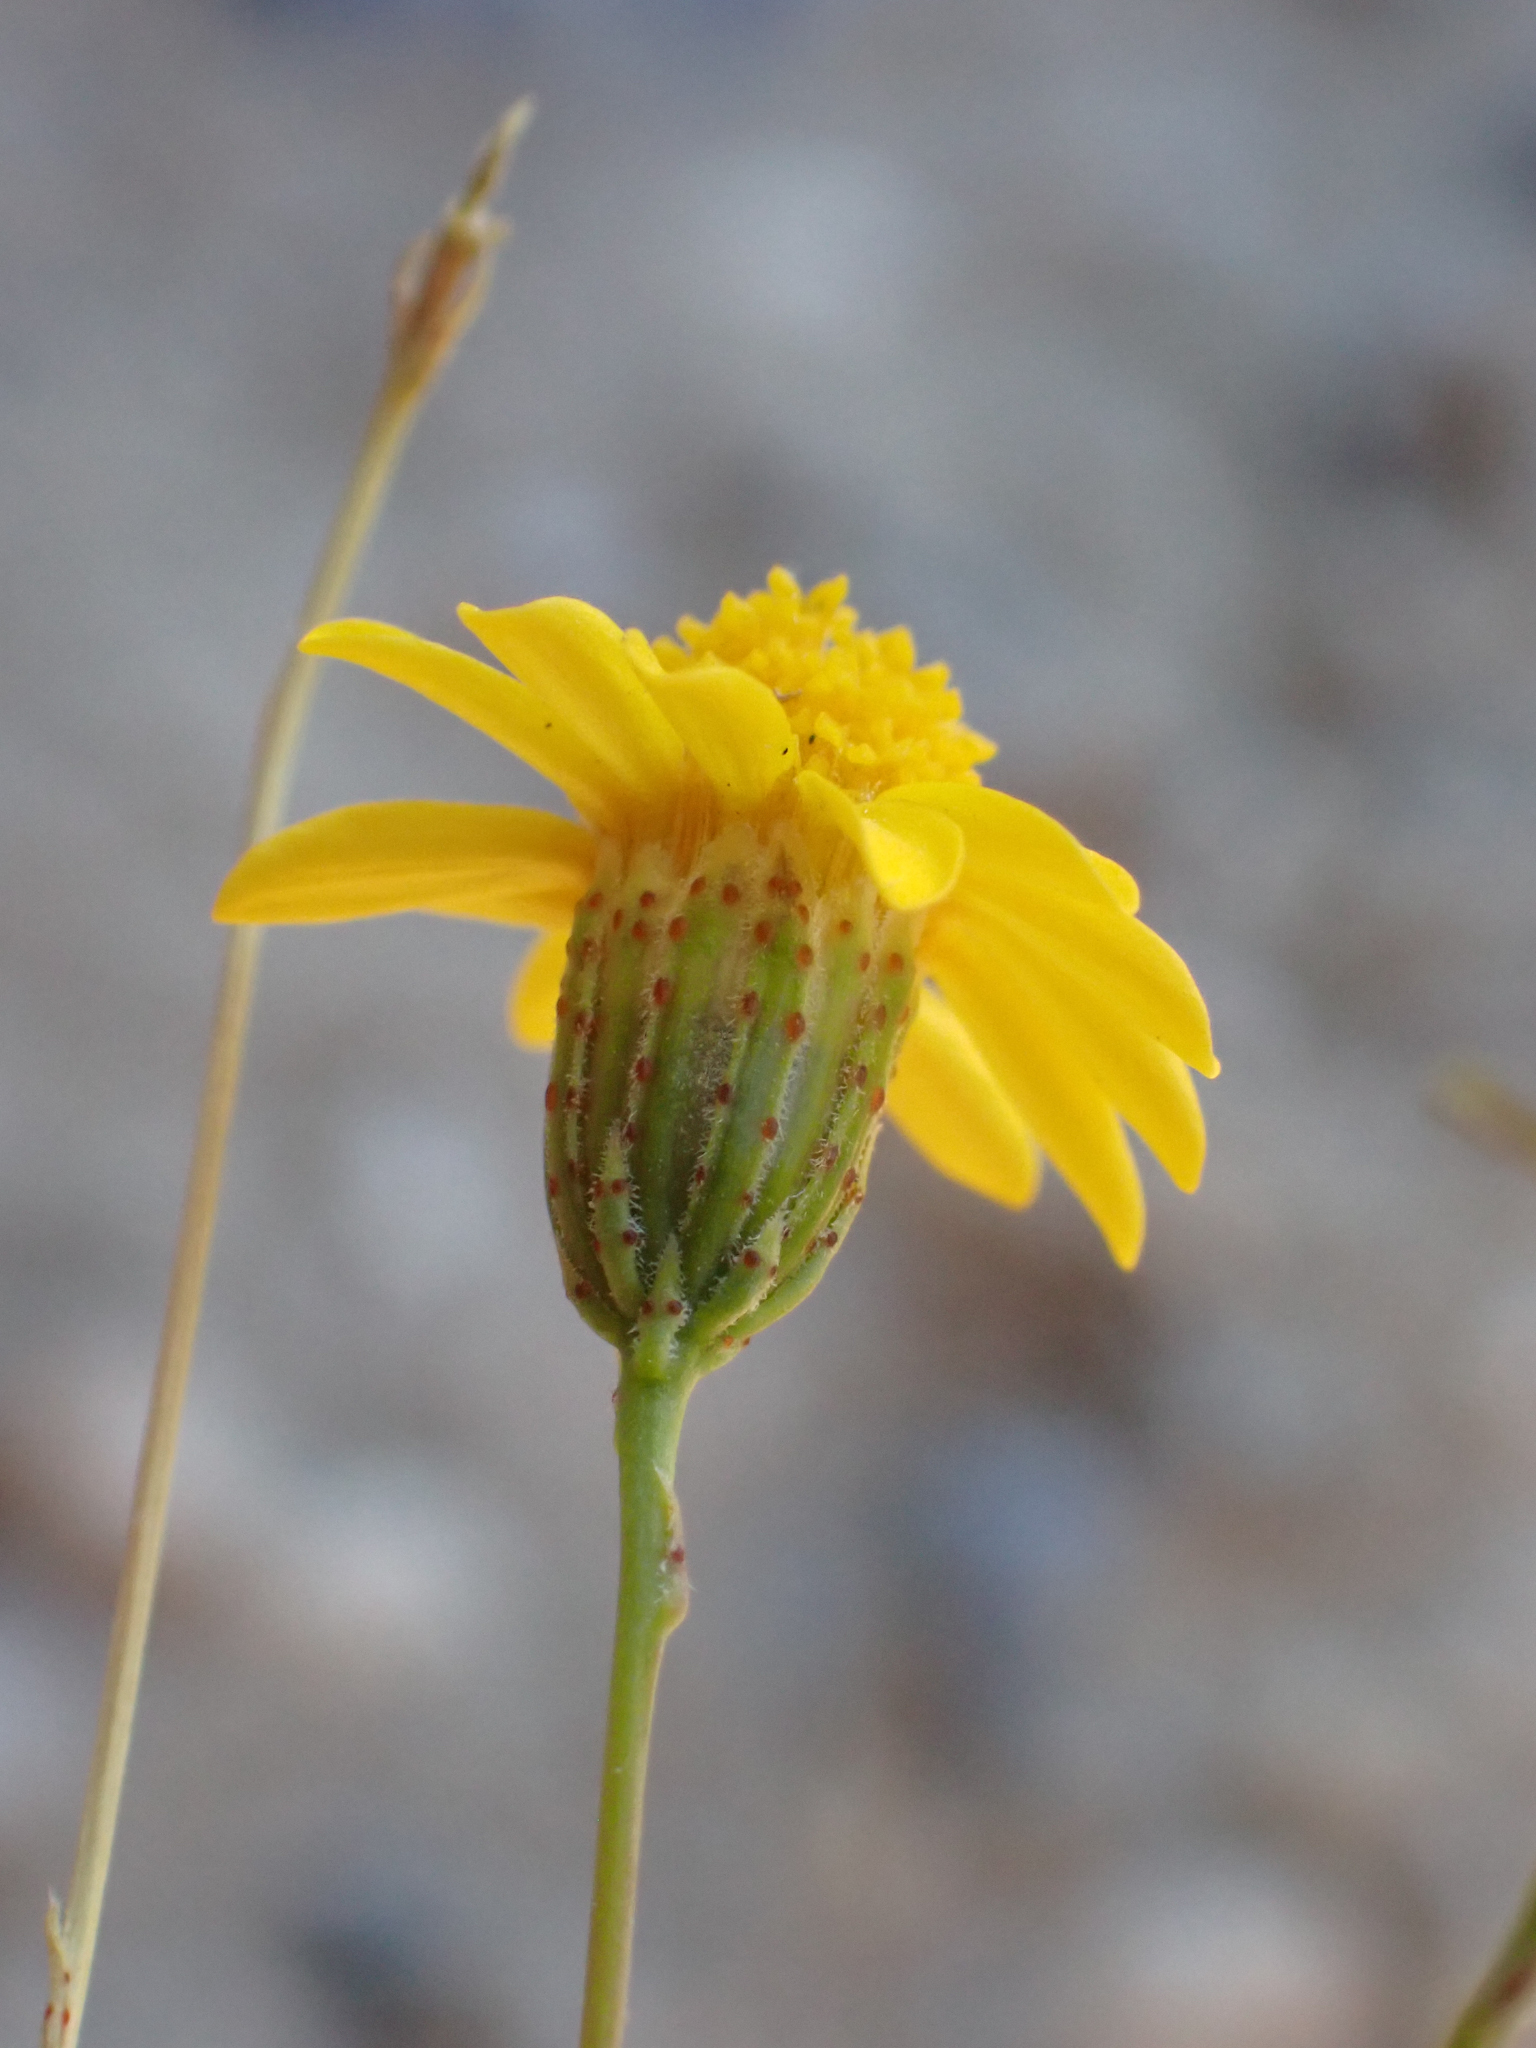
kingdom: Plantae
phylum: Tracheophyta
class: Magnoliopsida
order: Asterales
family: Asteraceae
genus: Thymophylla
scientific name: Thymophylla pentachaeta
